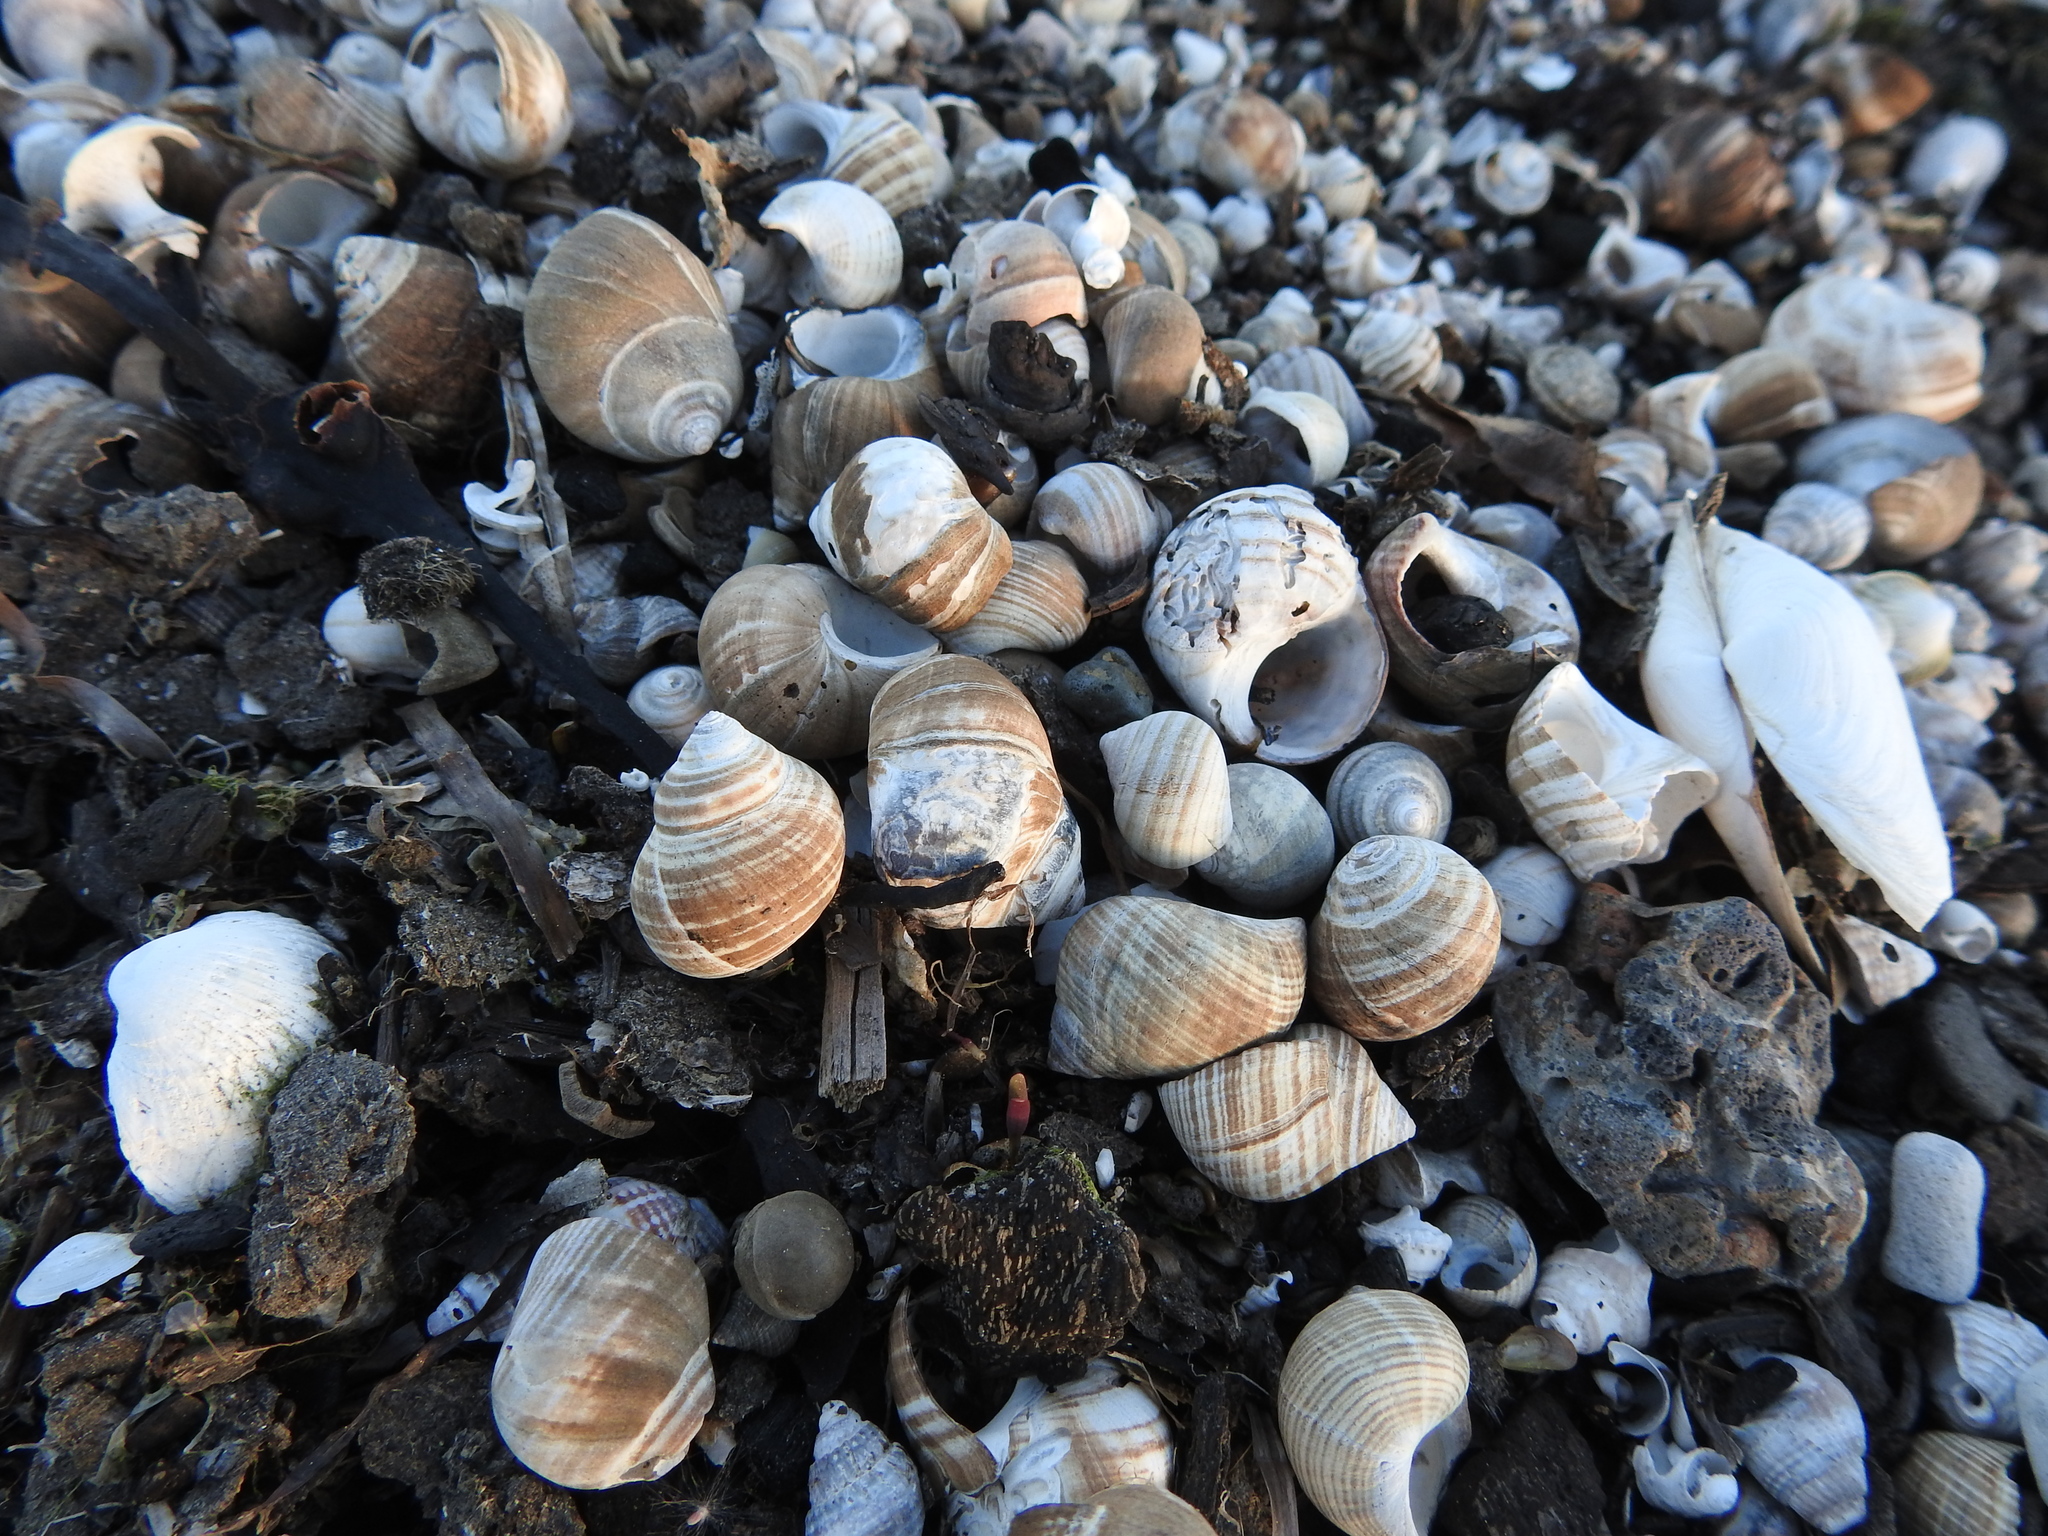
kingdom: Animalia
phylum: Mollusca
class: Gastropoda
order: Littorinimorpha
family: Littorinidae
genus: Littorina
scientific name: Littorina littorea
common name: Common periwinkle
